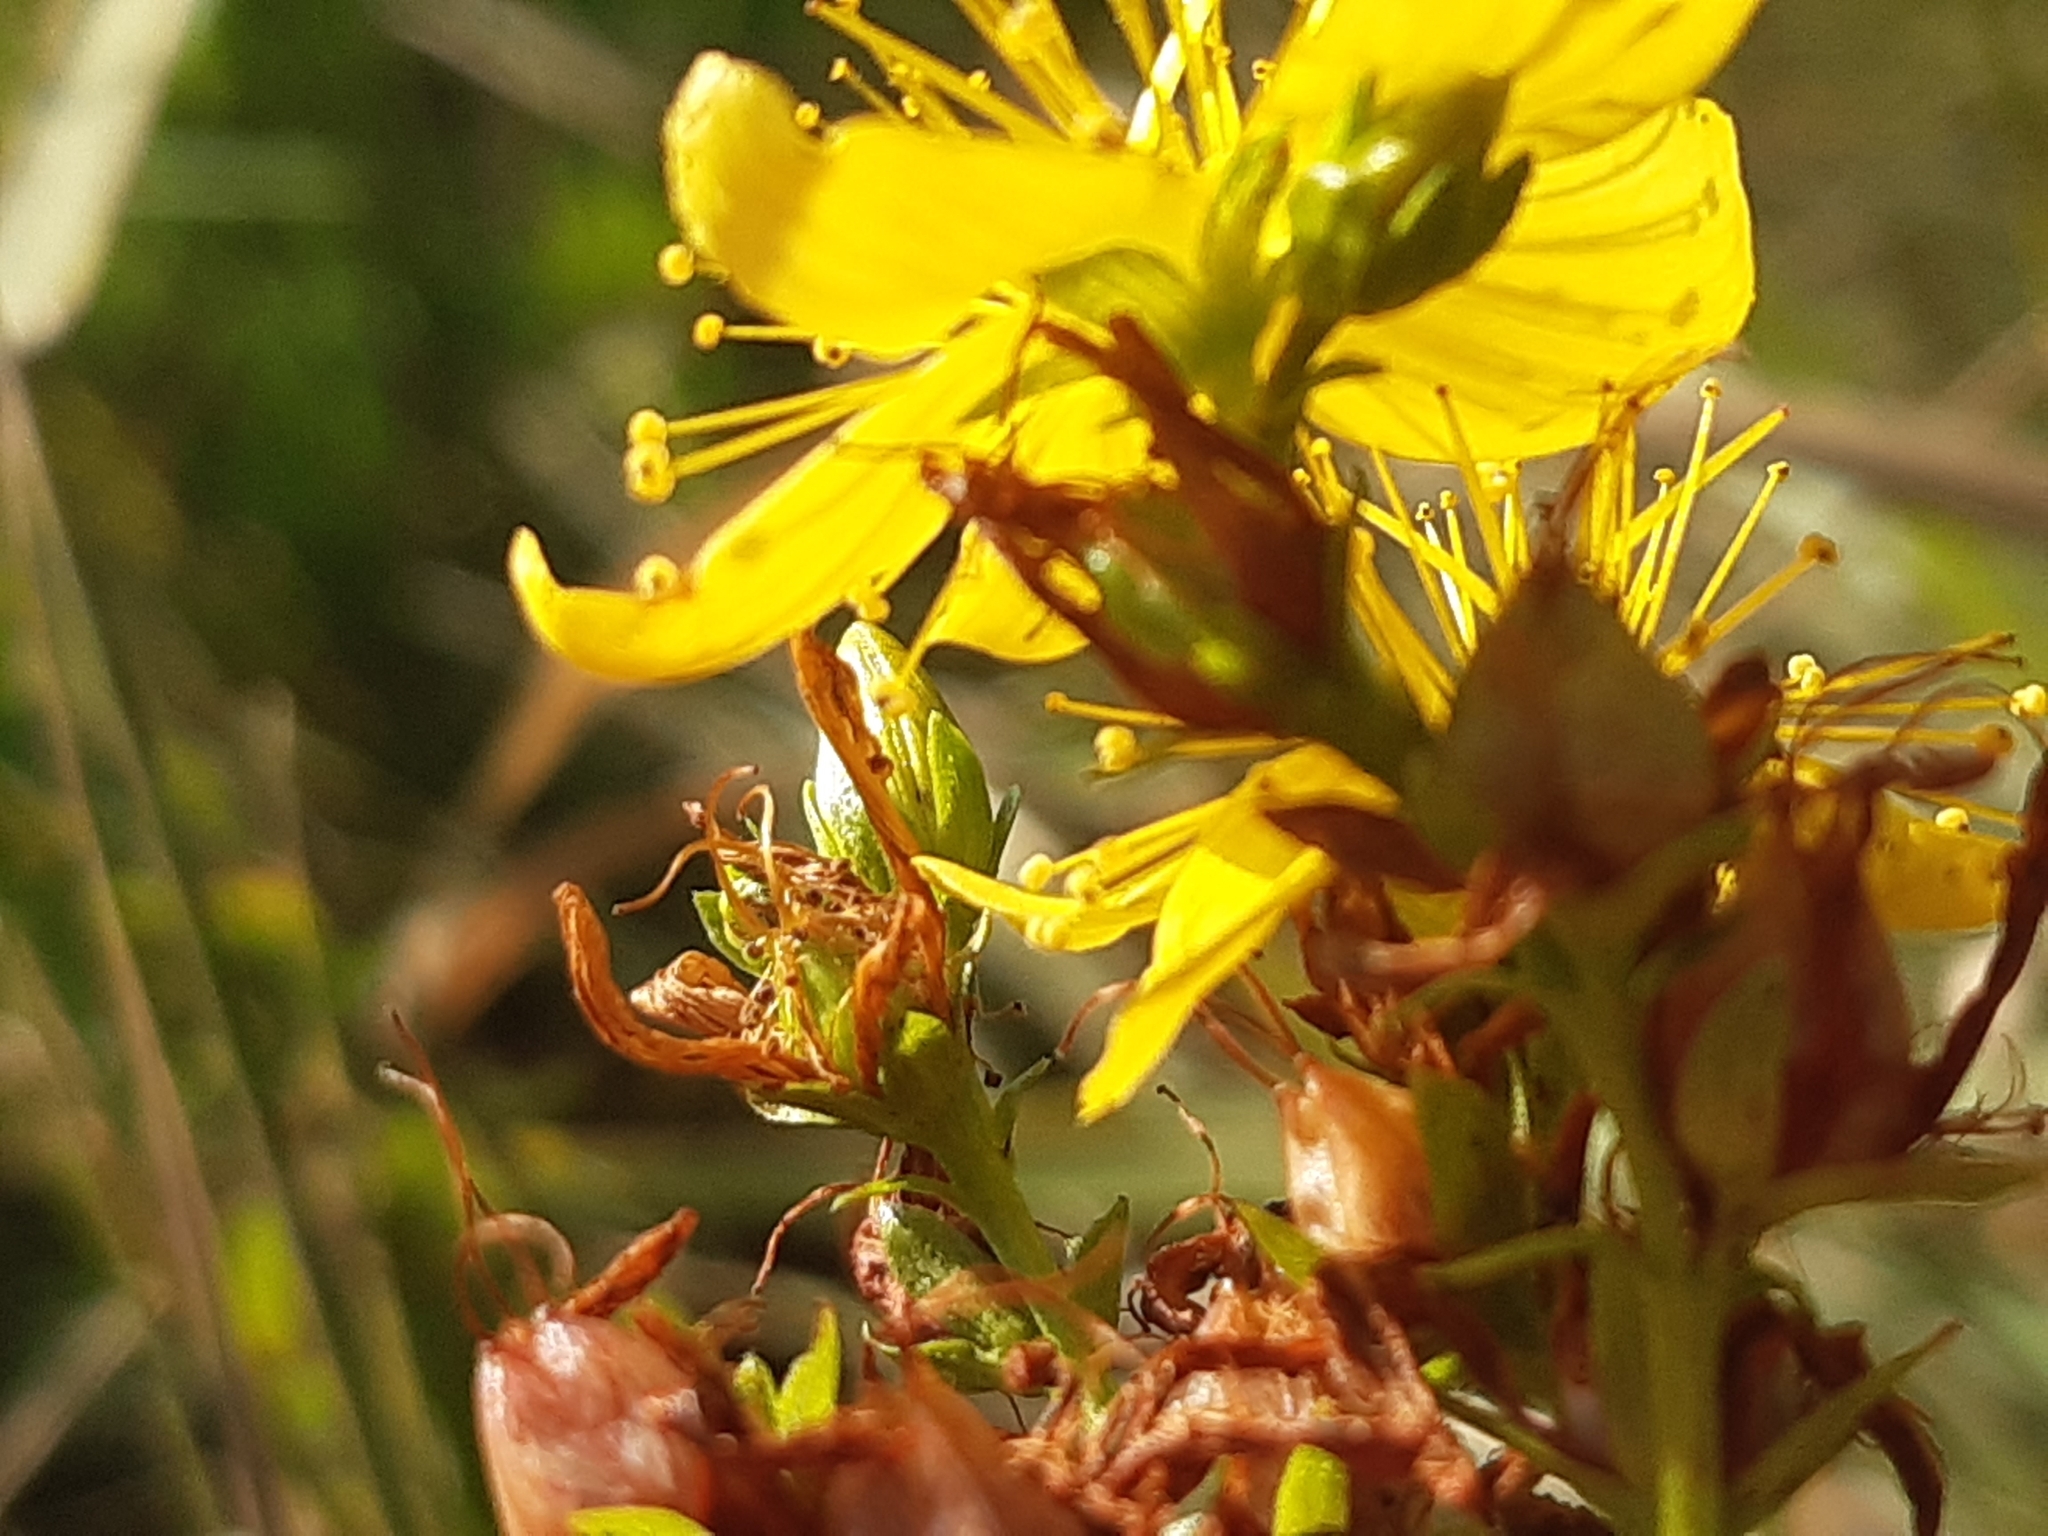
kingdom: Plantae
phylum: Tracheophyta
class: Magnoliopsida
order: Malpighiales
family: Hypericaceae
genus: Hypericum
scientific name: Hypericum perforatum
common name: Common st. johnswort
